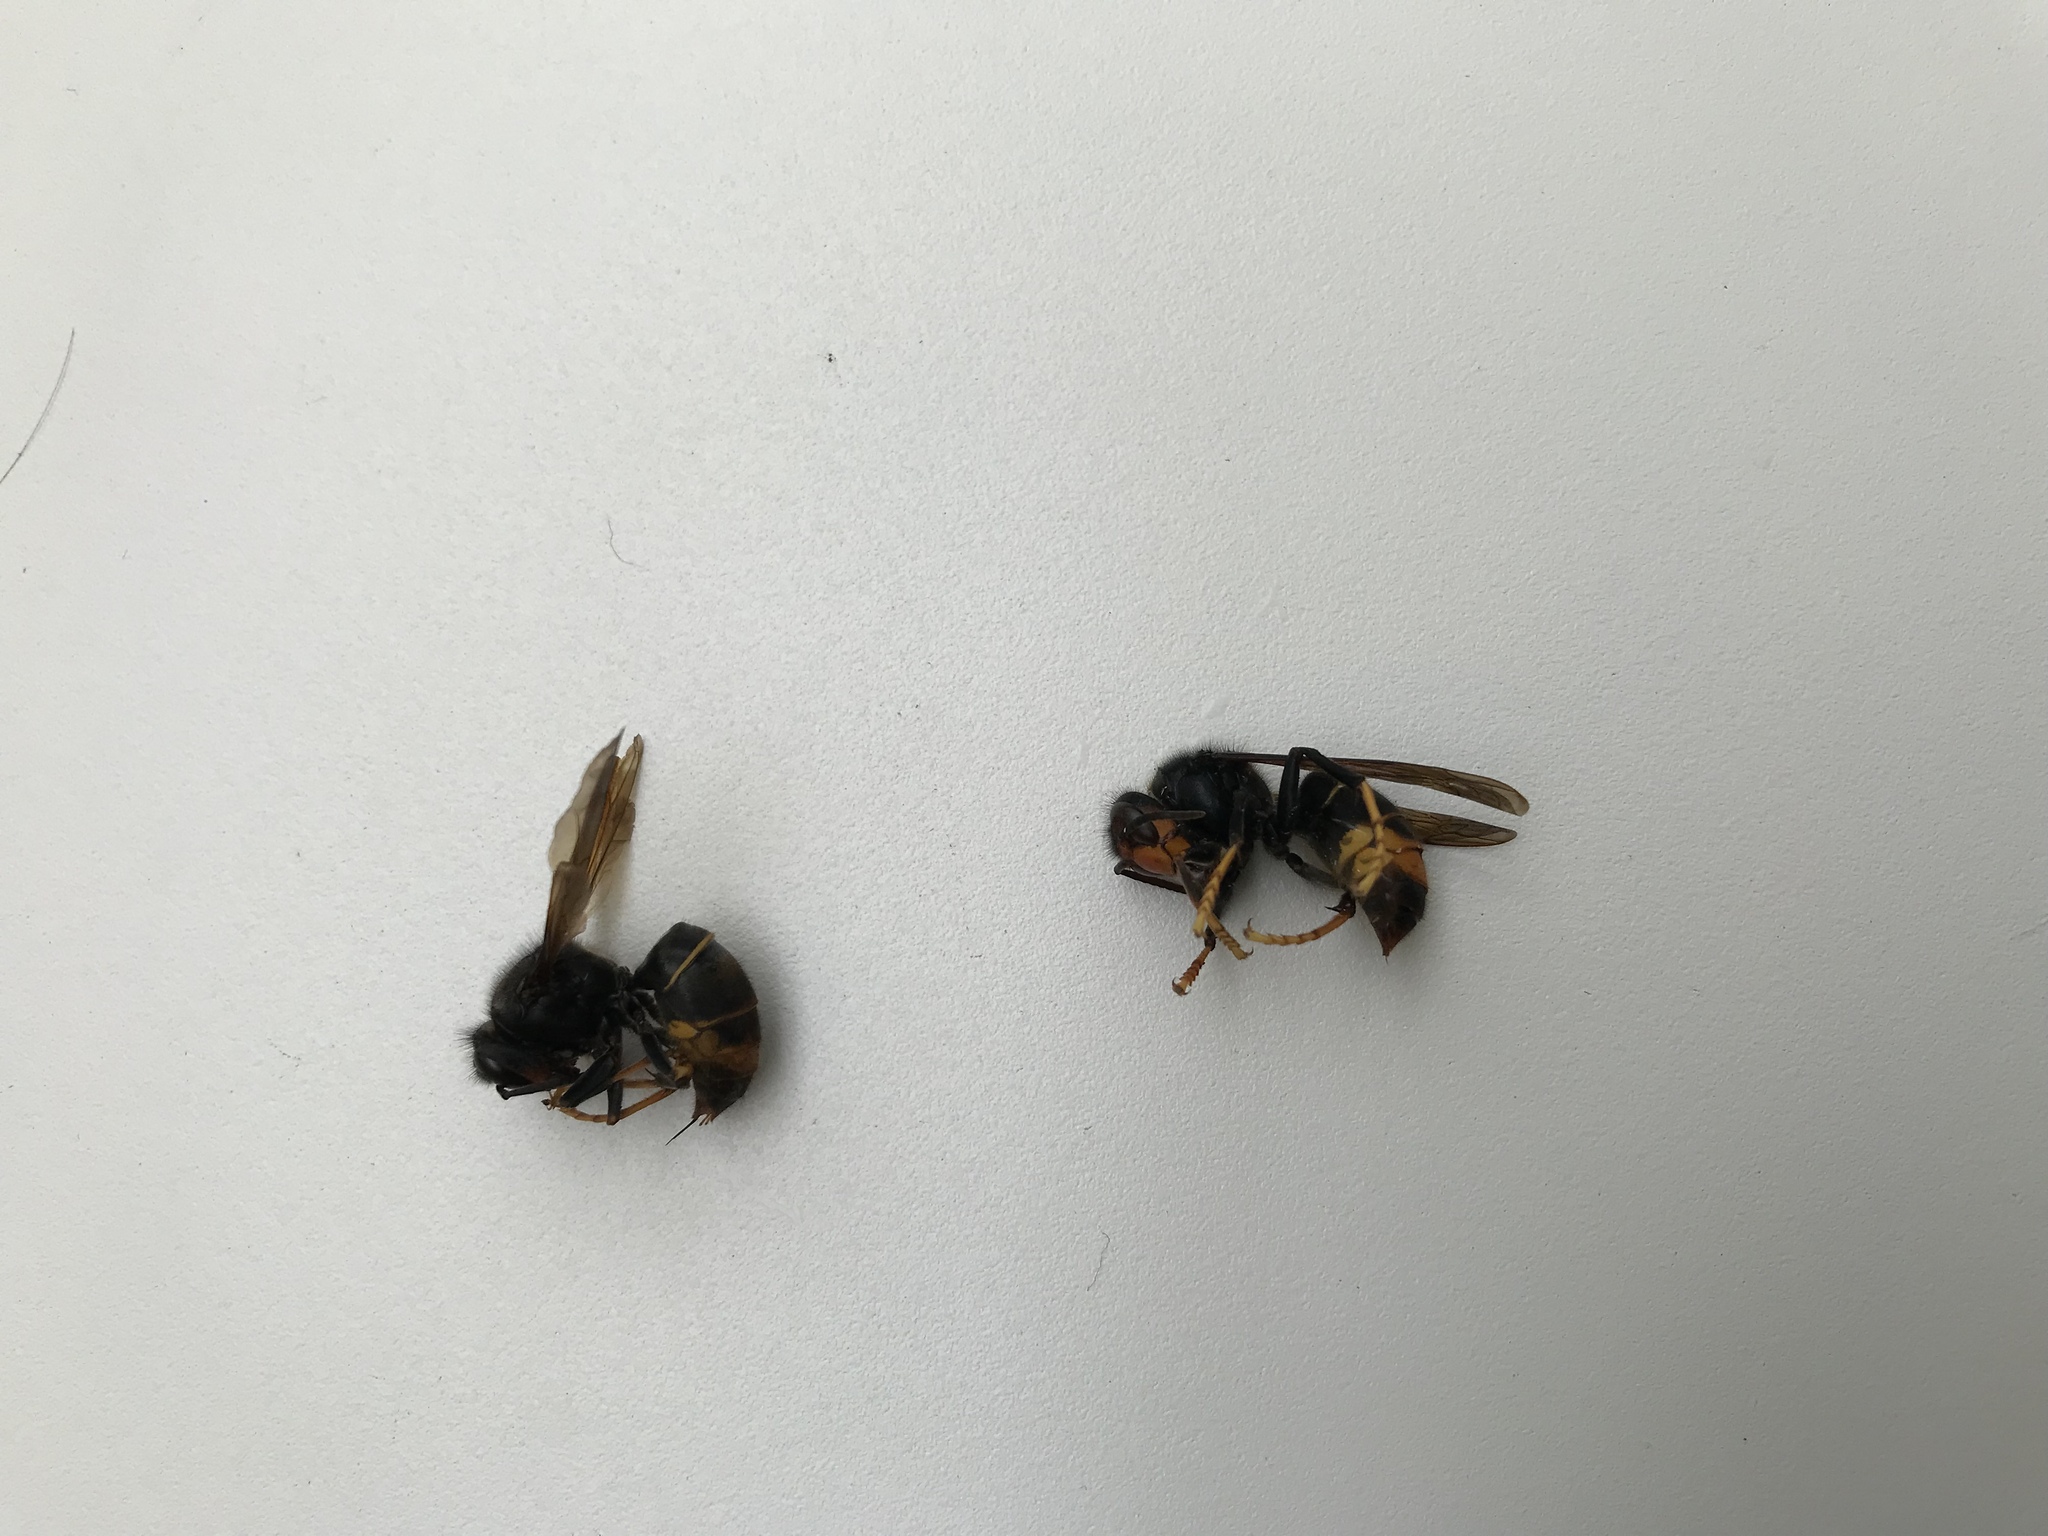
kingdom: Animalia
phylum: Arthropoda
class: Insecta
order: Hymenoptera
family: Vespidae
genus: Vespa
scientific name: Vespa velutina
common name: Asian hornet
